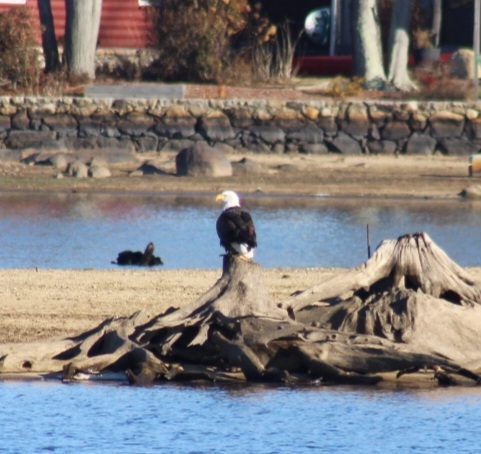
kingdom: Animalia
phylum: Chordata
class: Aves
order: Accipitriformes
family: Accipitridae
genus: Haliaeetus
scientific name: Haliaeetus leucocephalus
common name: Bald eagle
